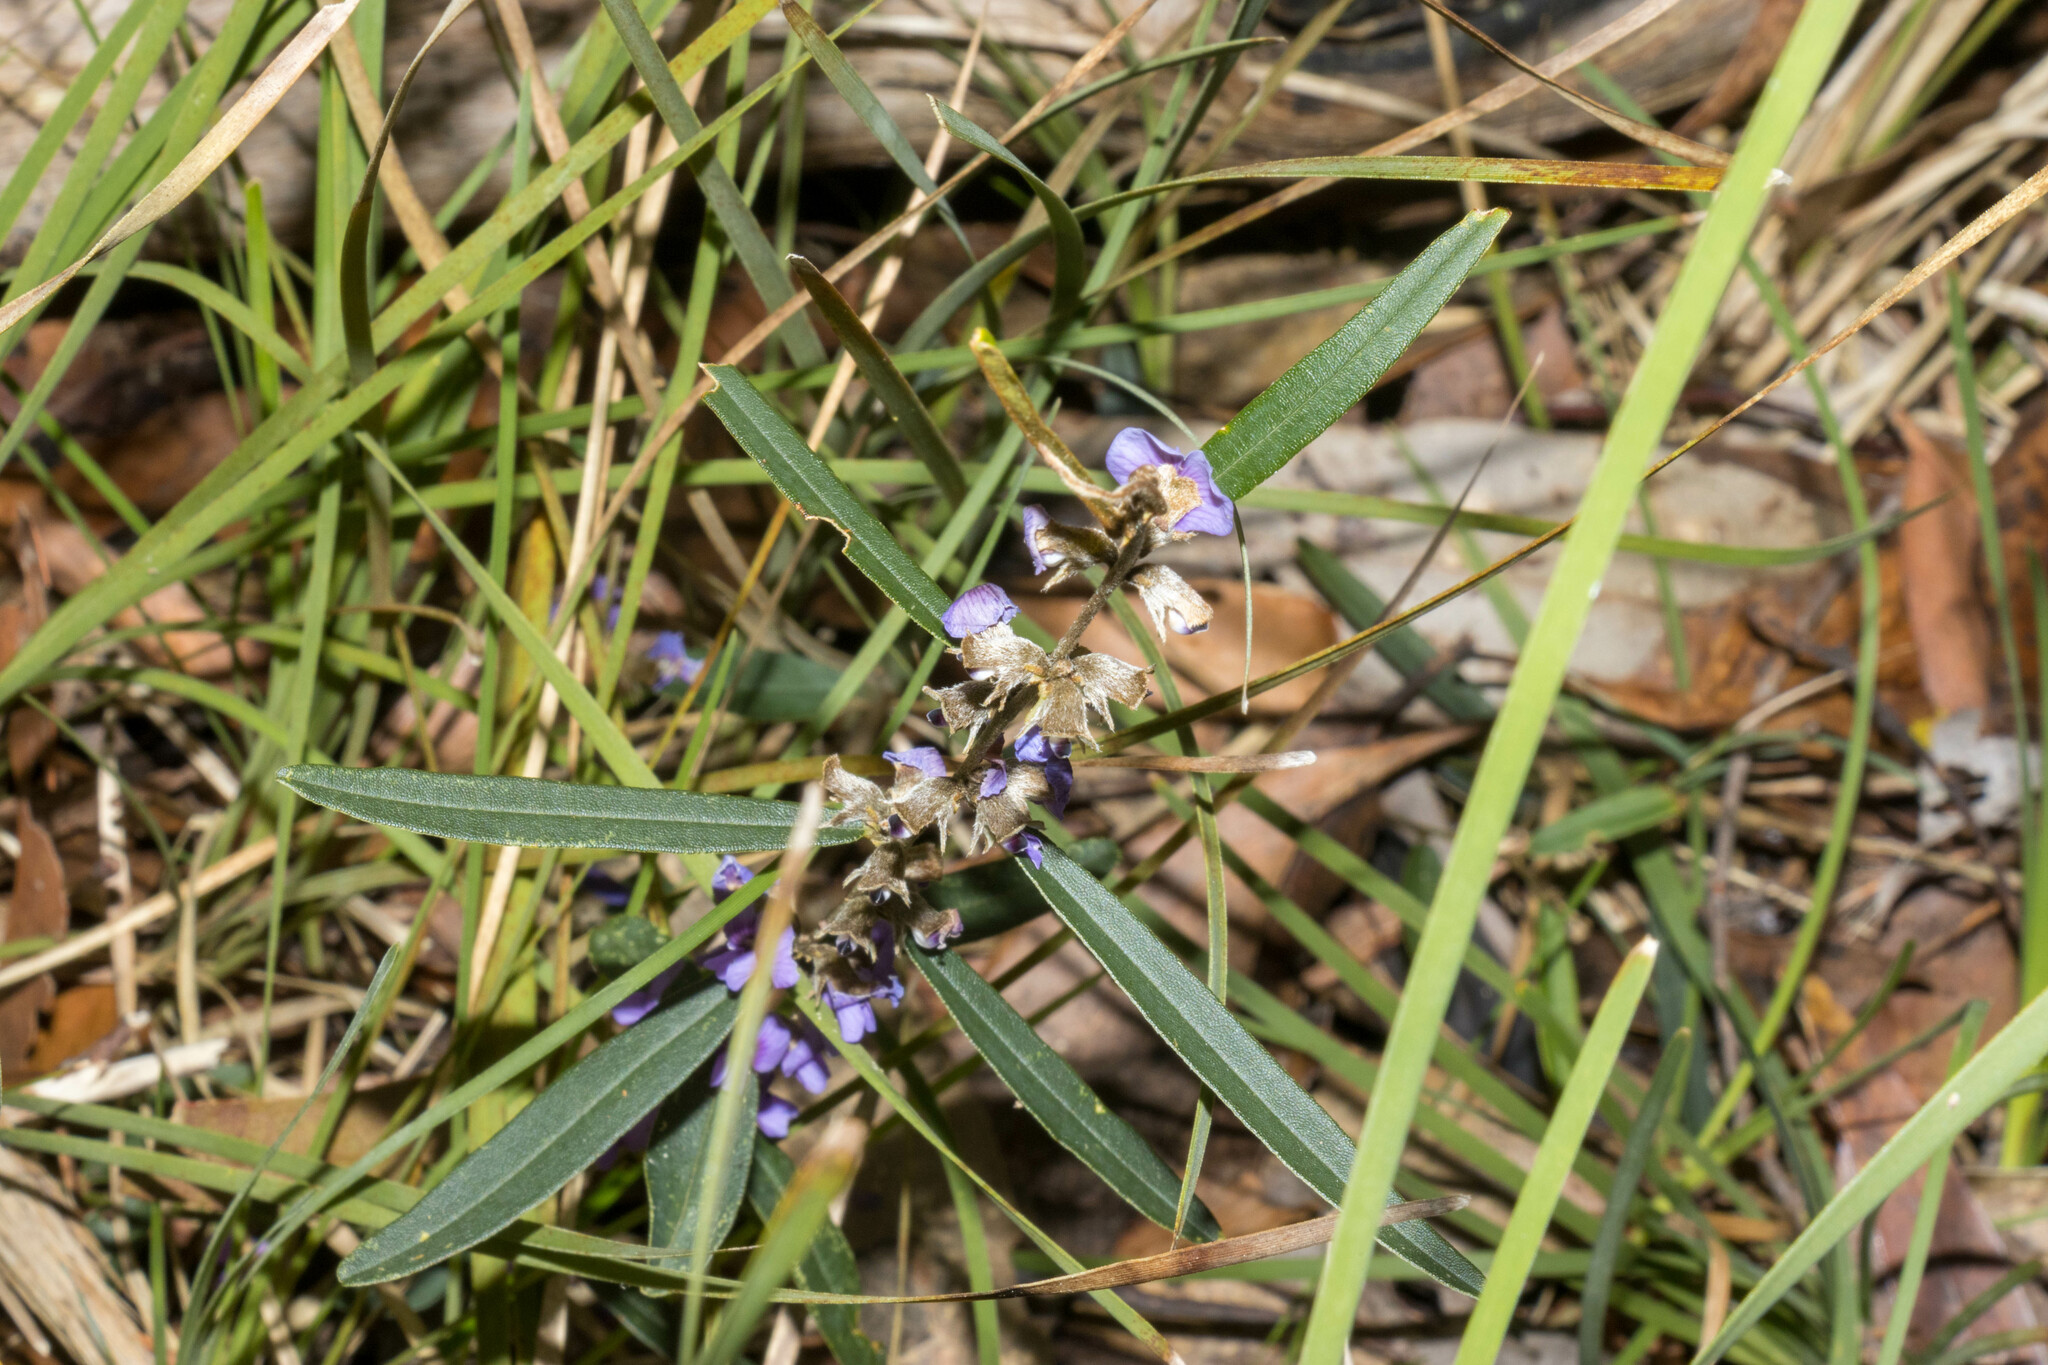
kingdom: Plantae
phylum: Tracheophyta
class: Magnoliopsida
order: Fabales
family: Fabaceae
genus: Hovea
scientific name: Hovea heterophylla
